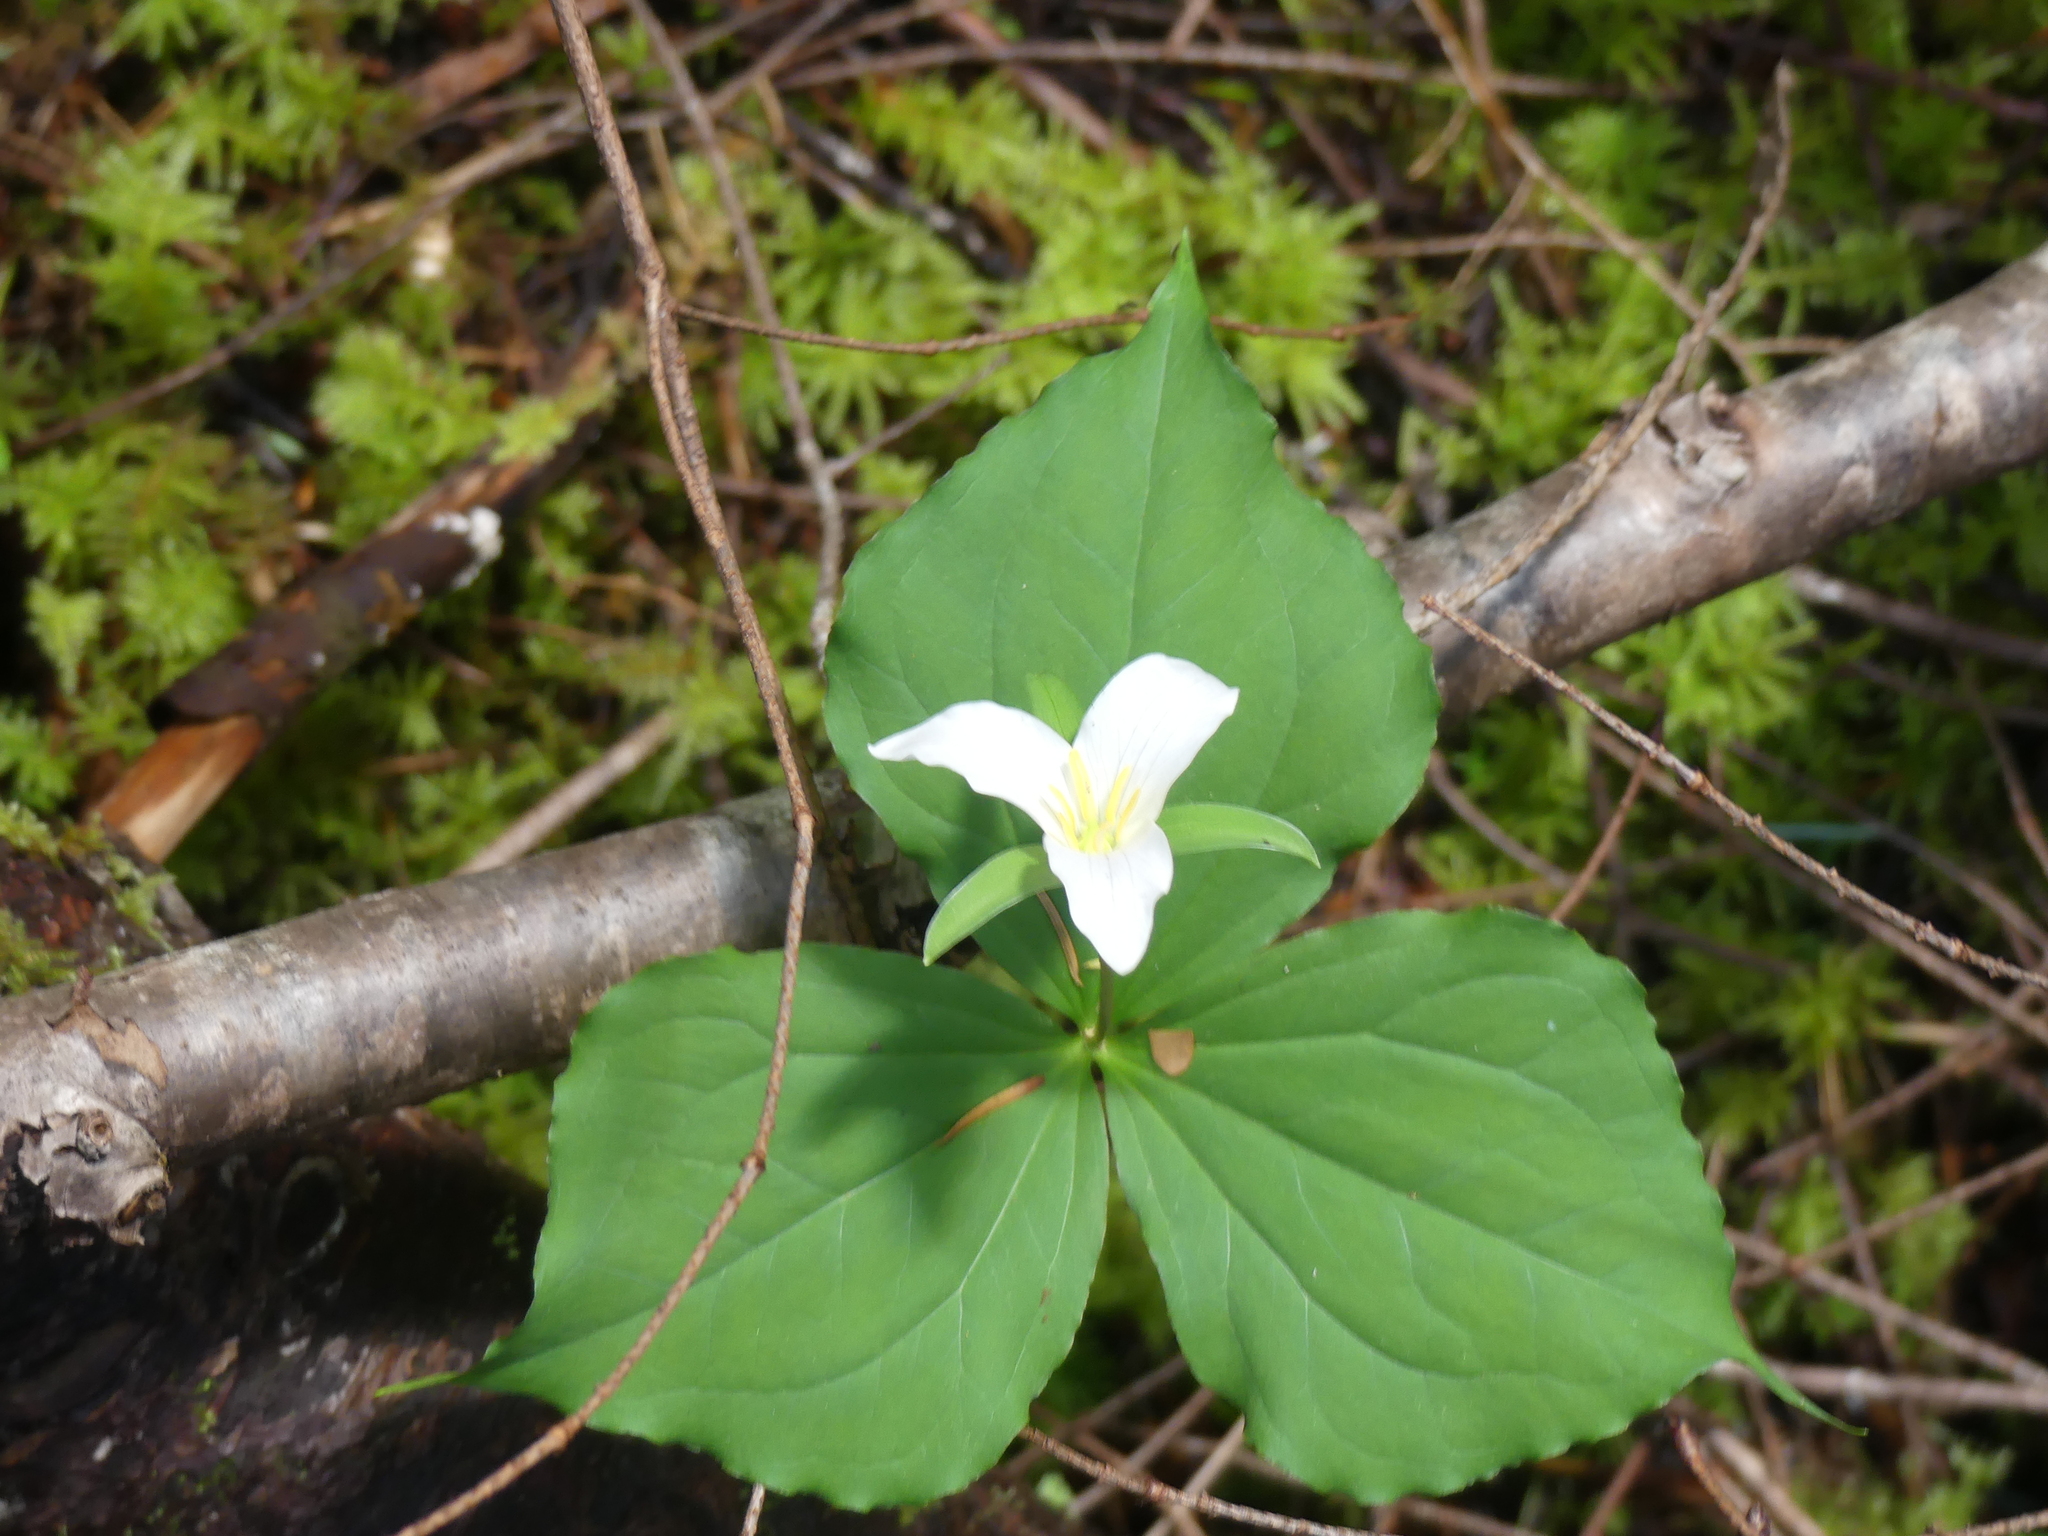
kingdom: Plantae
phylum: Tracheophyta
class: Liliopsida
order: Liliales
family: Melanthiaceae
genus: Trillium
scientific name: Trillium ovatum
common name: Pacific trillium
